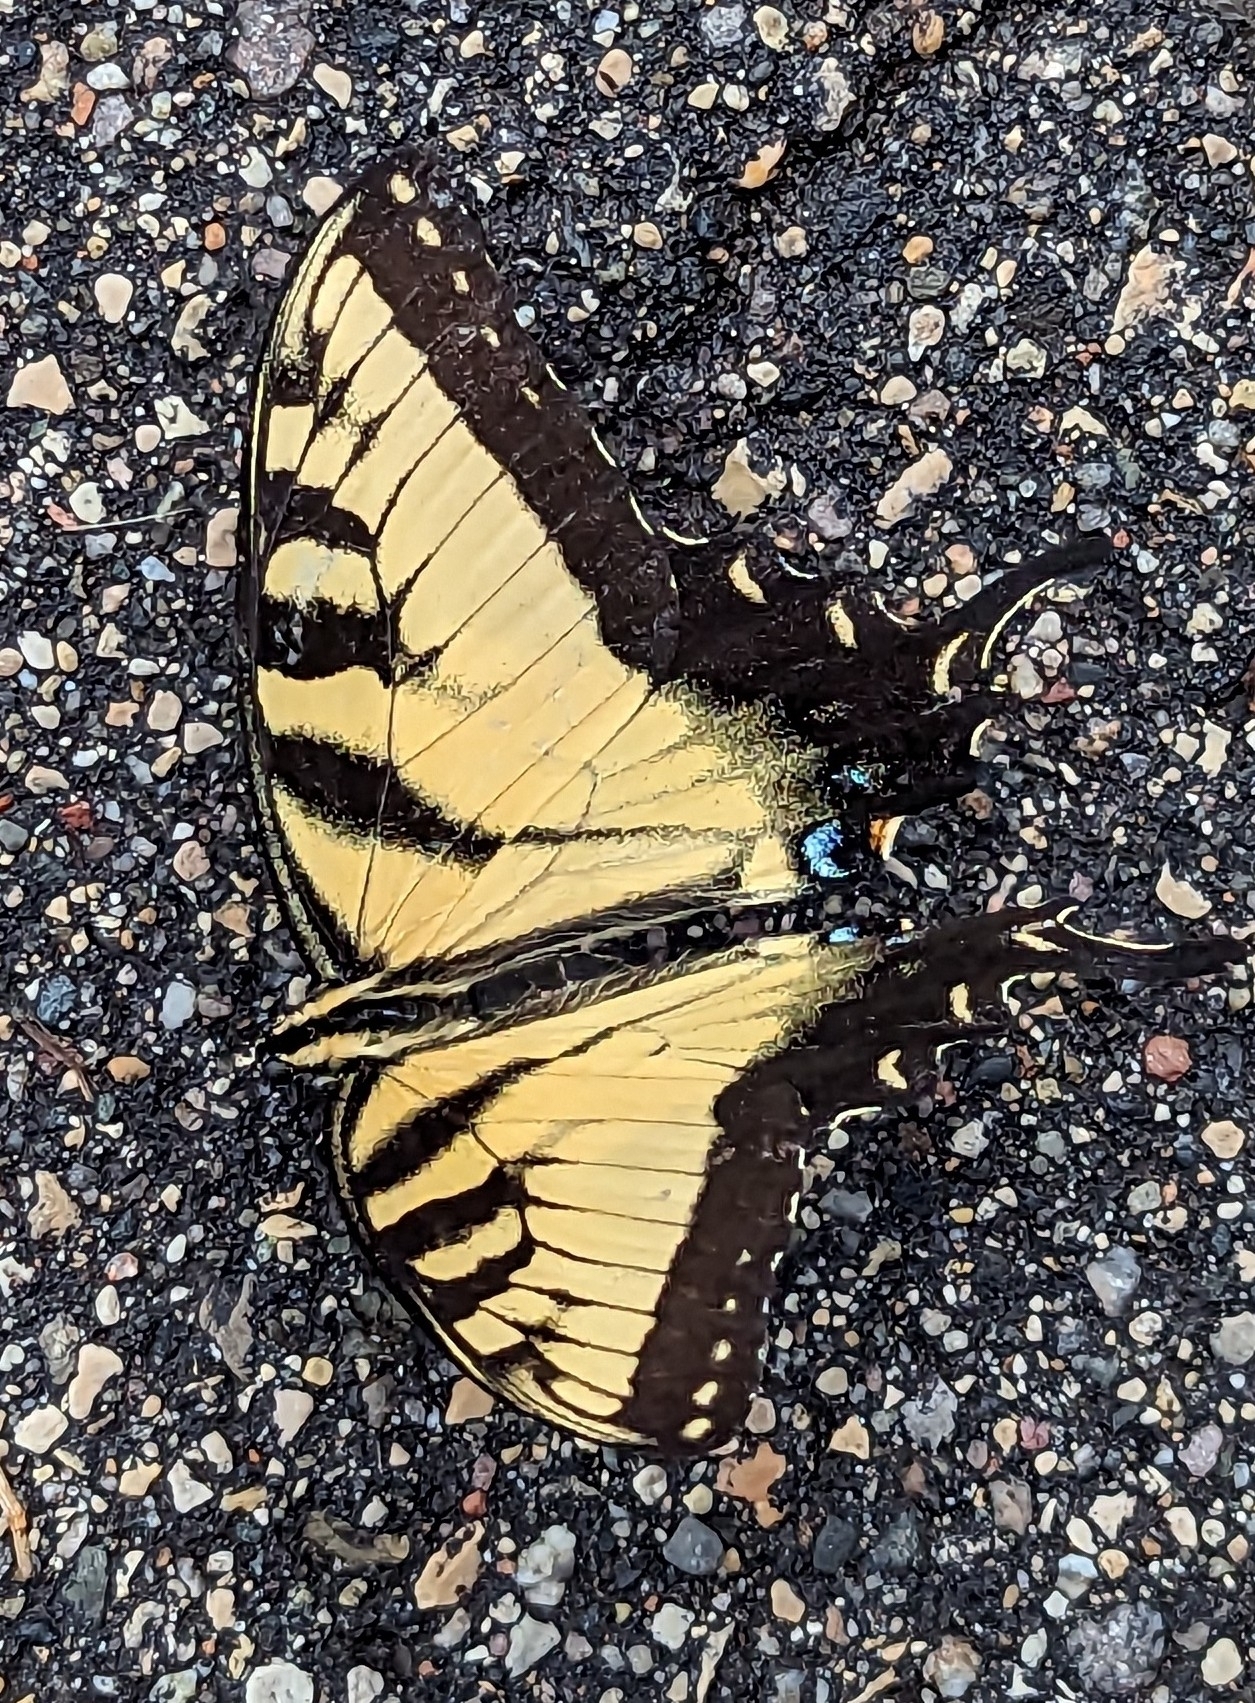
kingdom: Animalia
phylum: Arthropoda
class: Insecta
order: Lepidoptera
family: Papilionidae
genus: Papilio
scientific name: Papilio glaucus
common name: Tiger swallowtail
